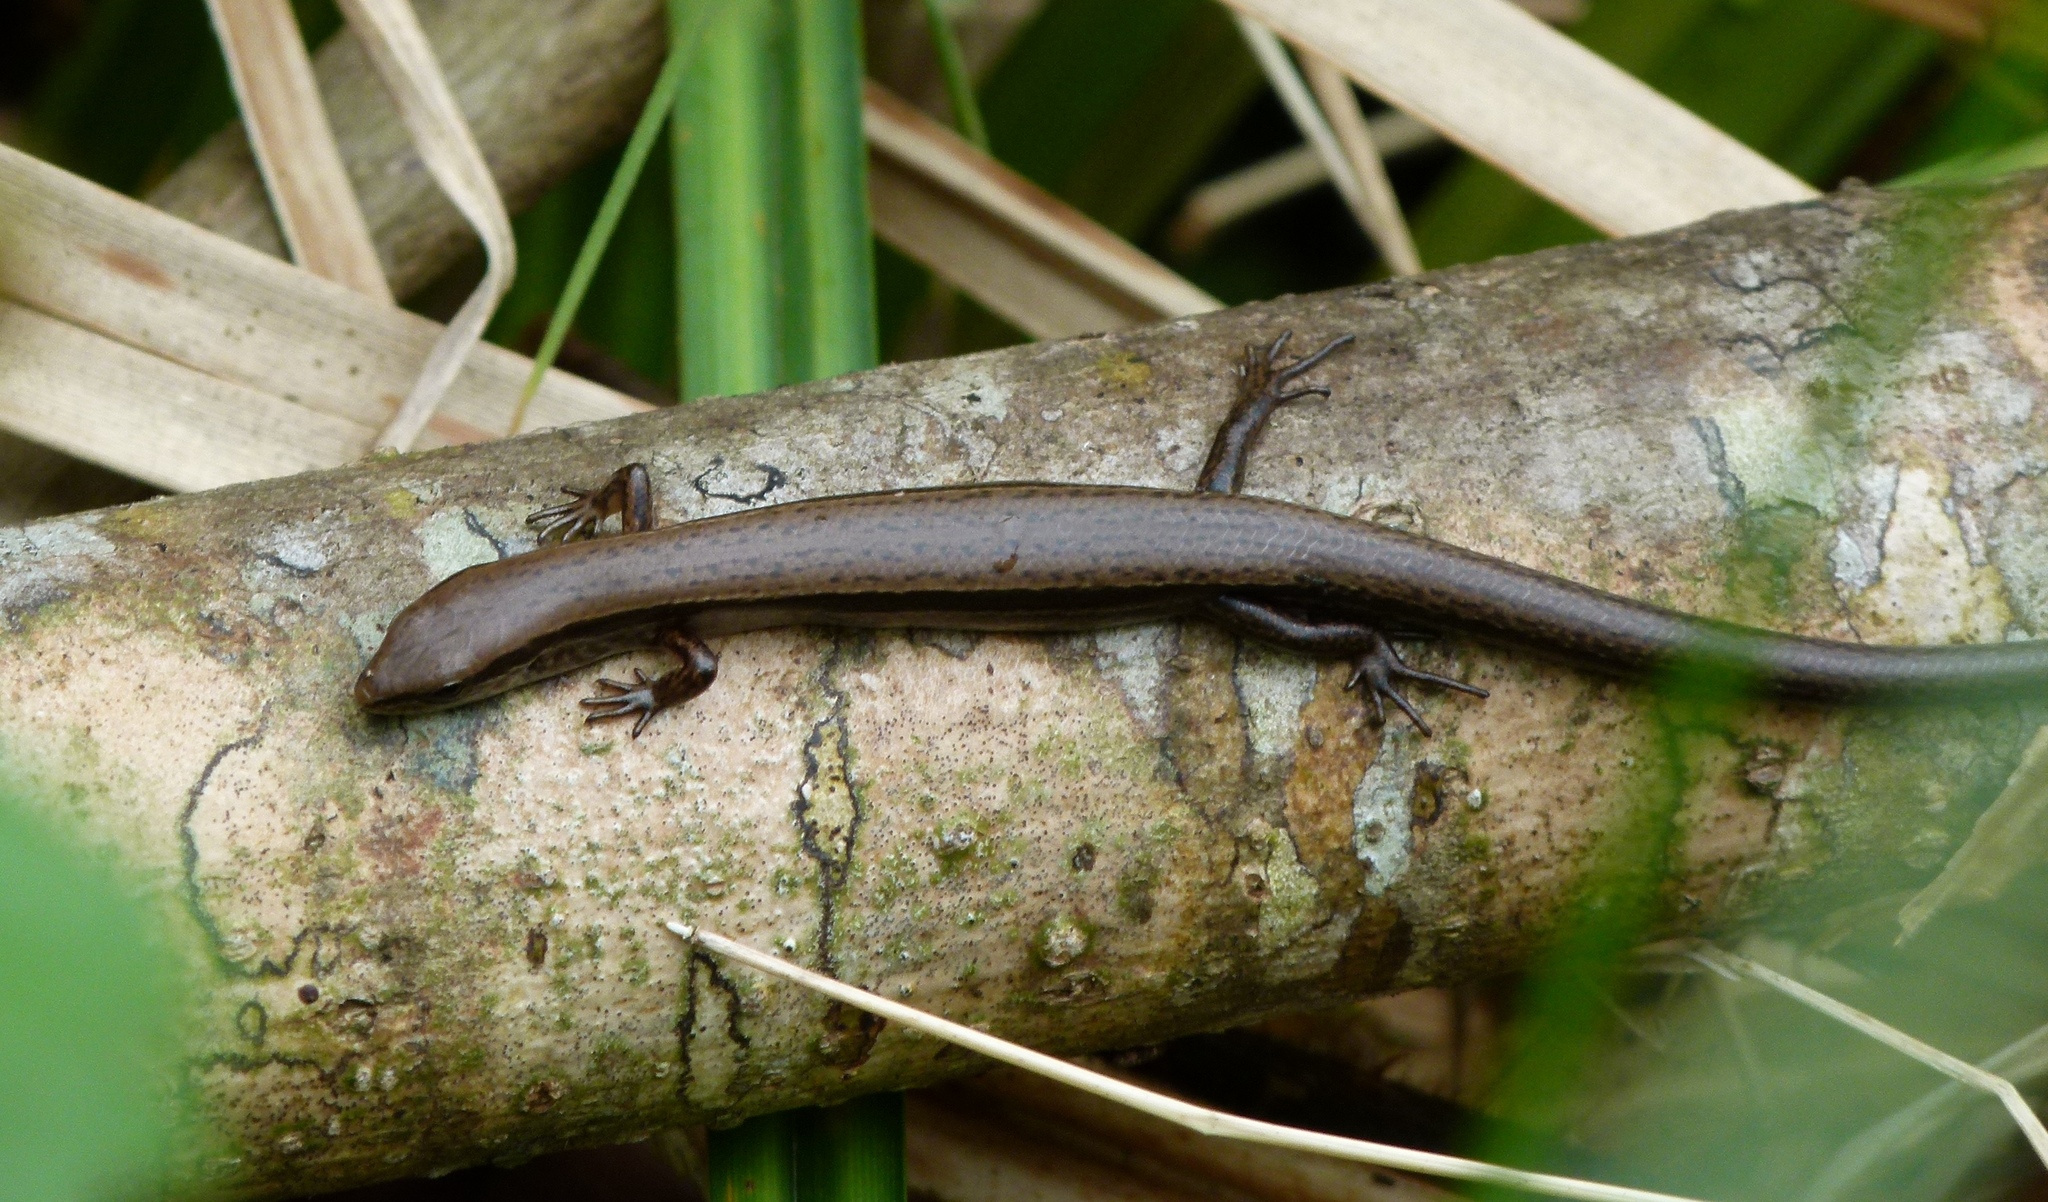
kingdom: Animalia
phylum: Chordata
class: Squamata
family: Scincidae
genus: Scincella
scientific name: Scincella lateralis
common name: Ground skink
